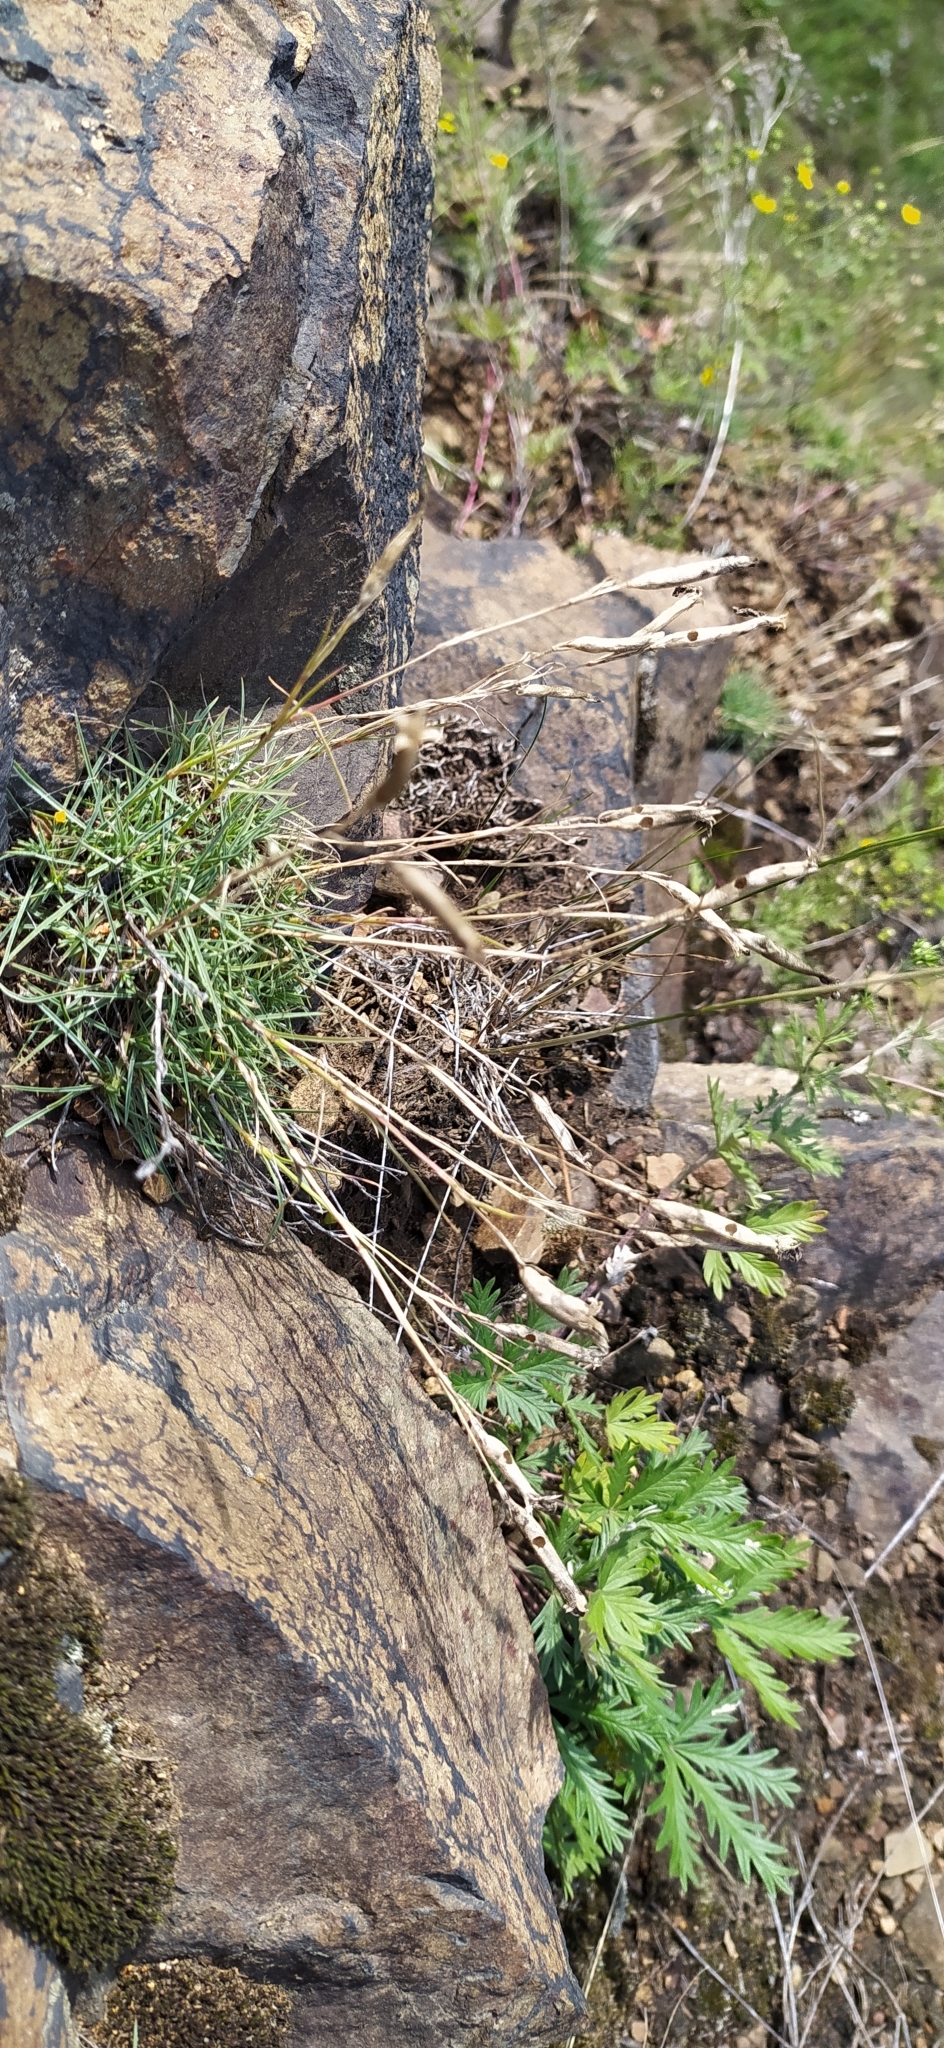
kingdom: Plantae
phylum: Tracheophyta
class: Magnoliopsida
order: Caryophyllales
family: Caryophyllaceae
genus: Dianthus
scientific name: Dianthus acicularis
